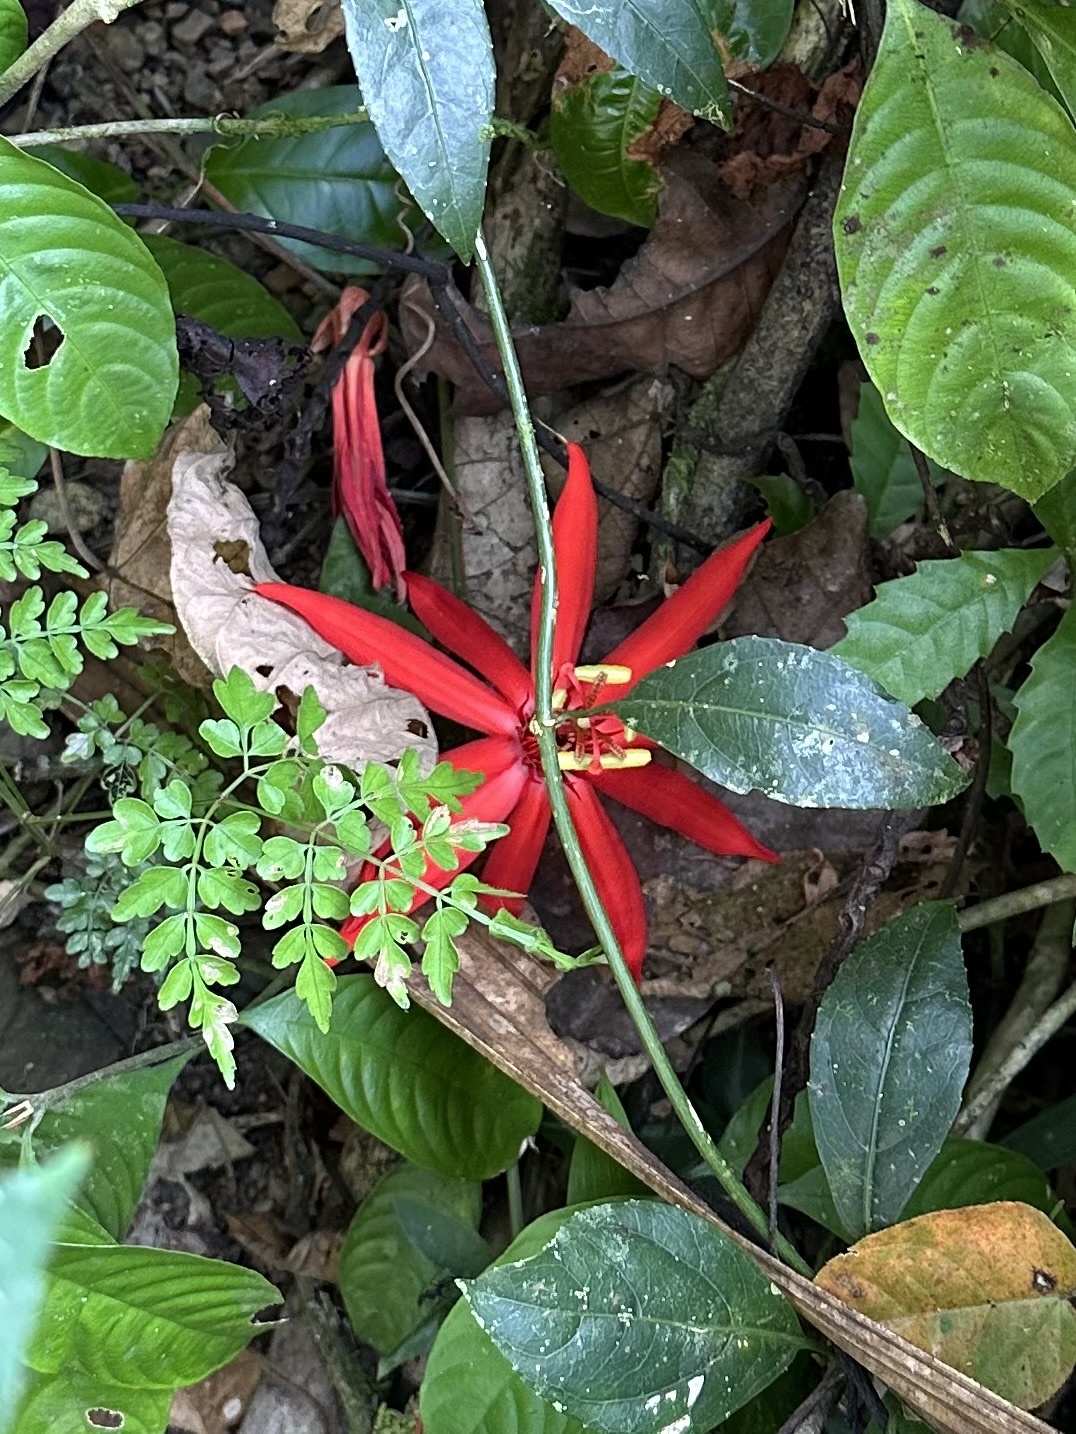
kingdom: Plantae
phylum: Tracheophyta
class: Magnoliopsida
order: Malpighiales
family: Passifloraceae
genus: Passiflora
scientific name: Passiflora vitifolia
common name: Perfumed passionflower
